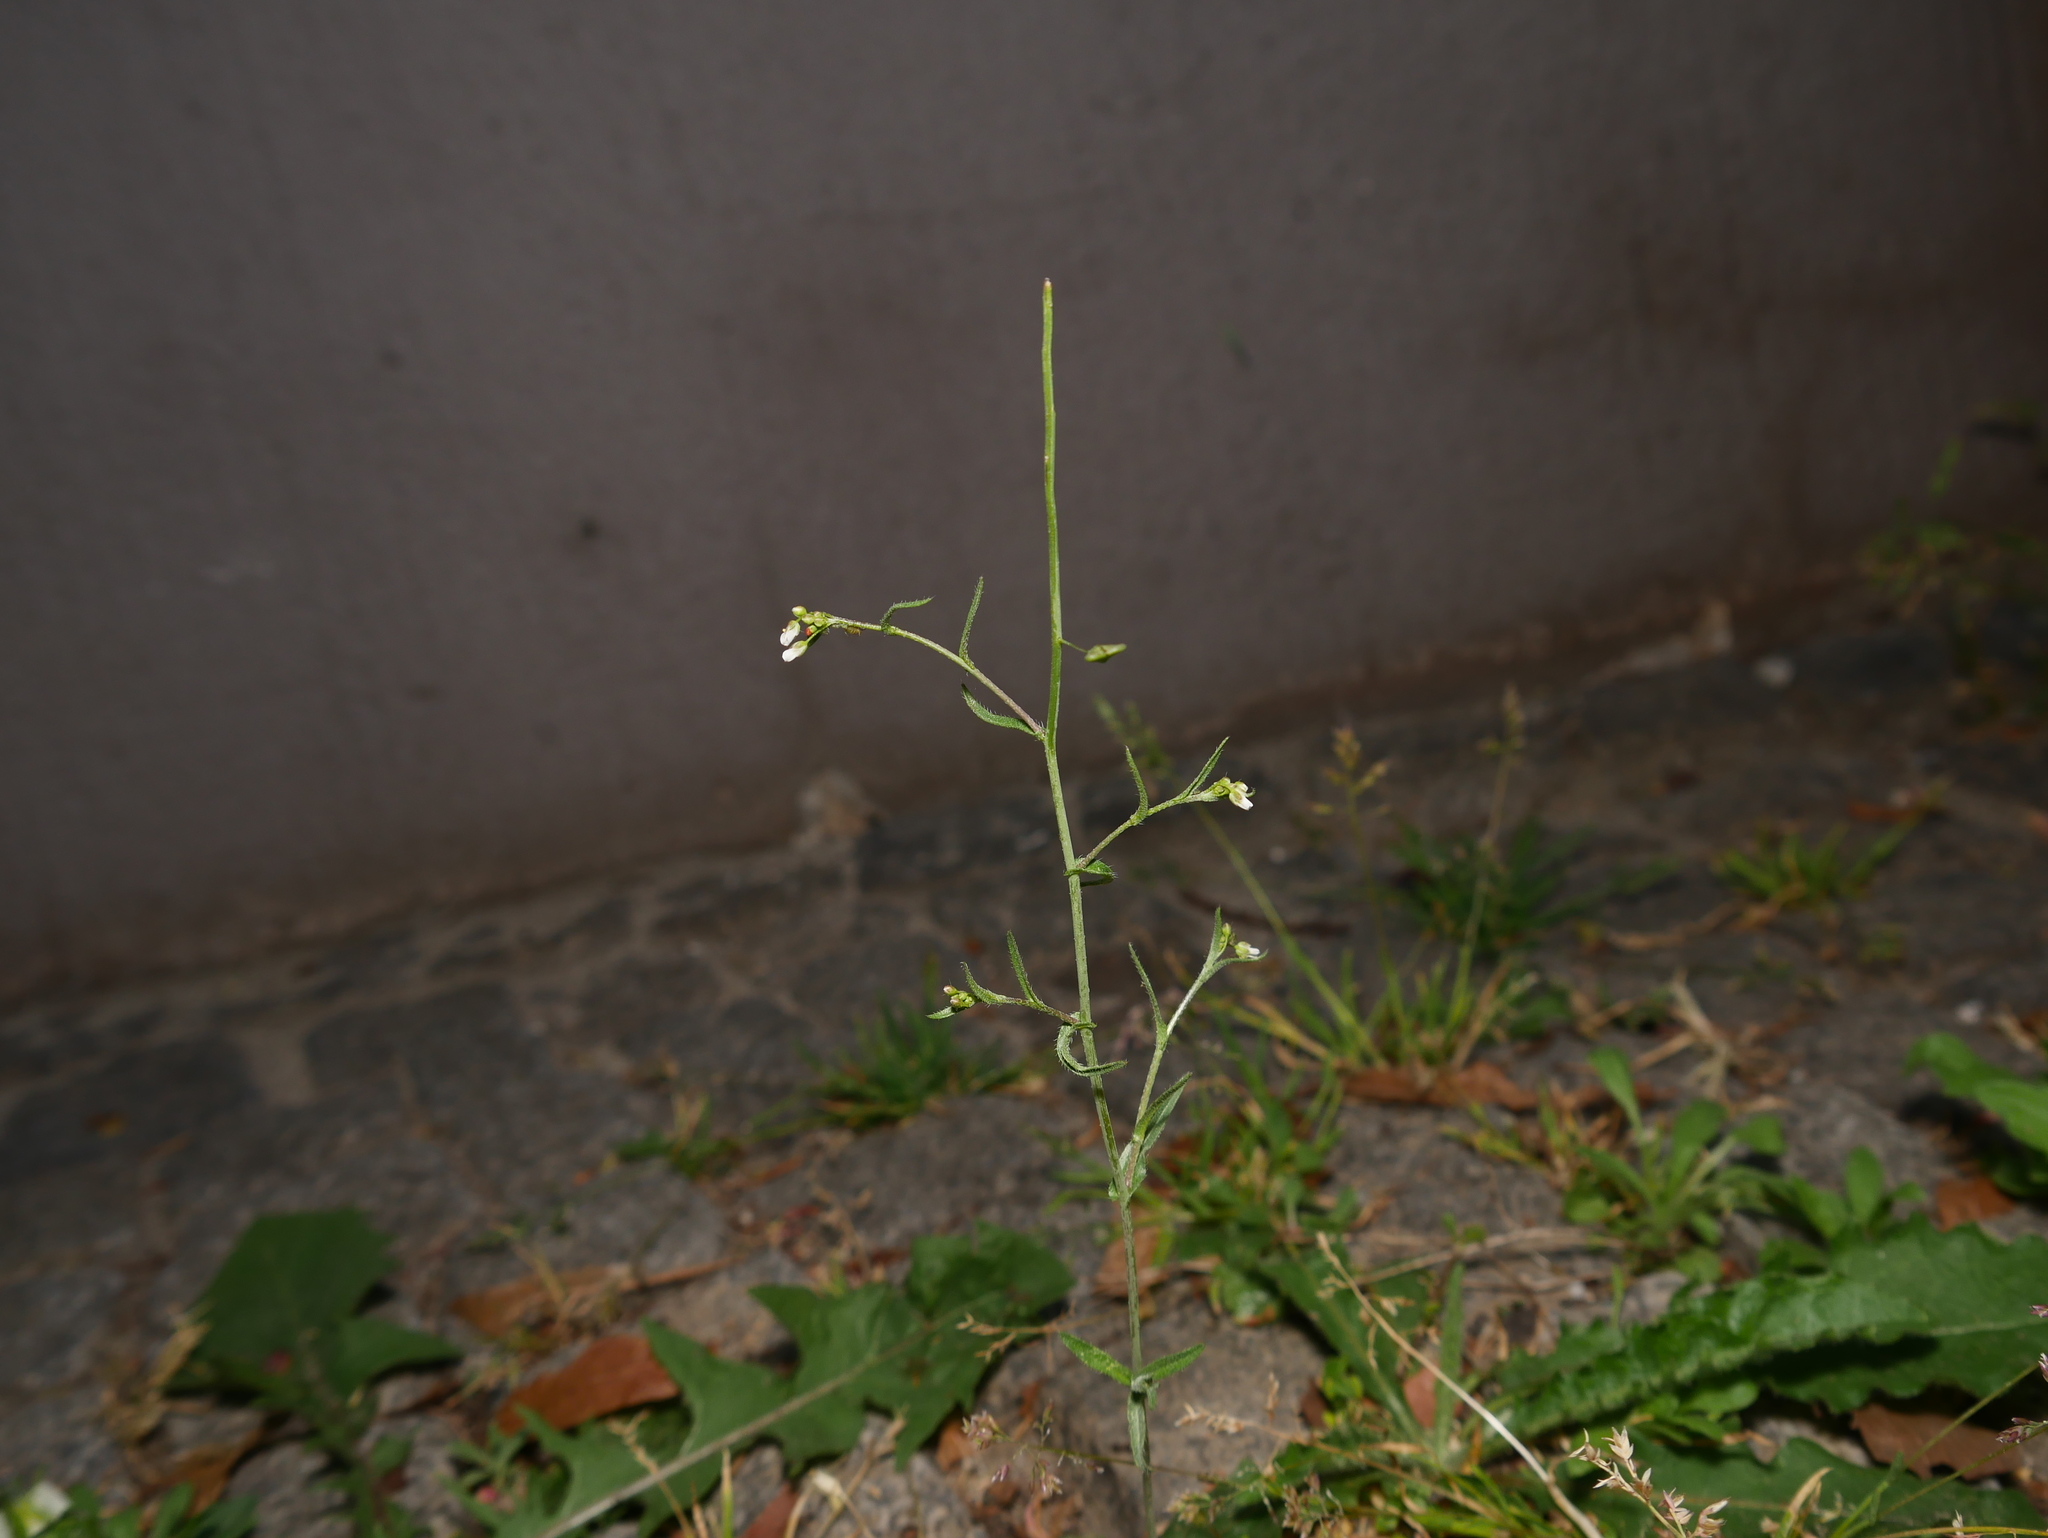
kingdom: Plantae
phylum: Tracheophyta
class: Magnoliopsida
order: Brassicales
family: Brassicaceae
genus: Capsella
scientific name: Capsella bursa-pastoris
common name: Shepherd's purse
